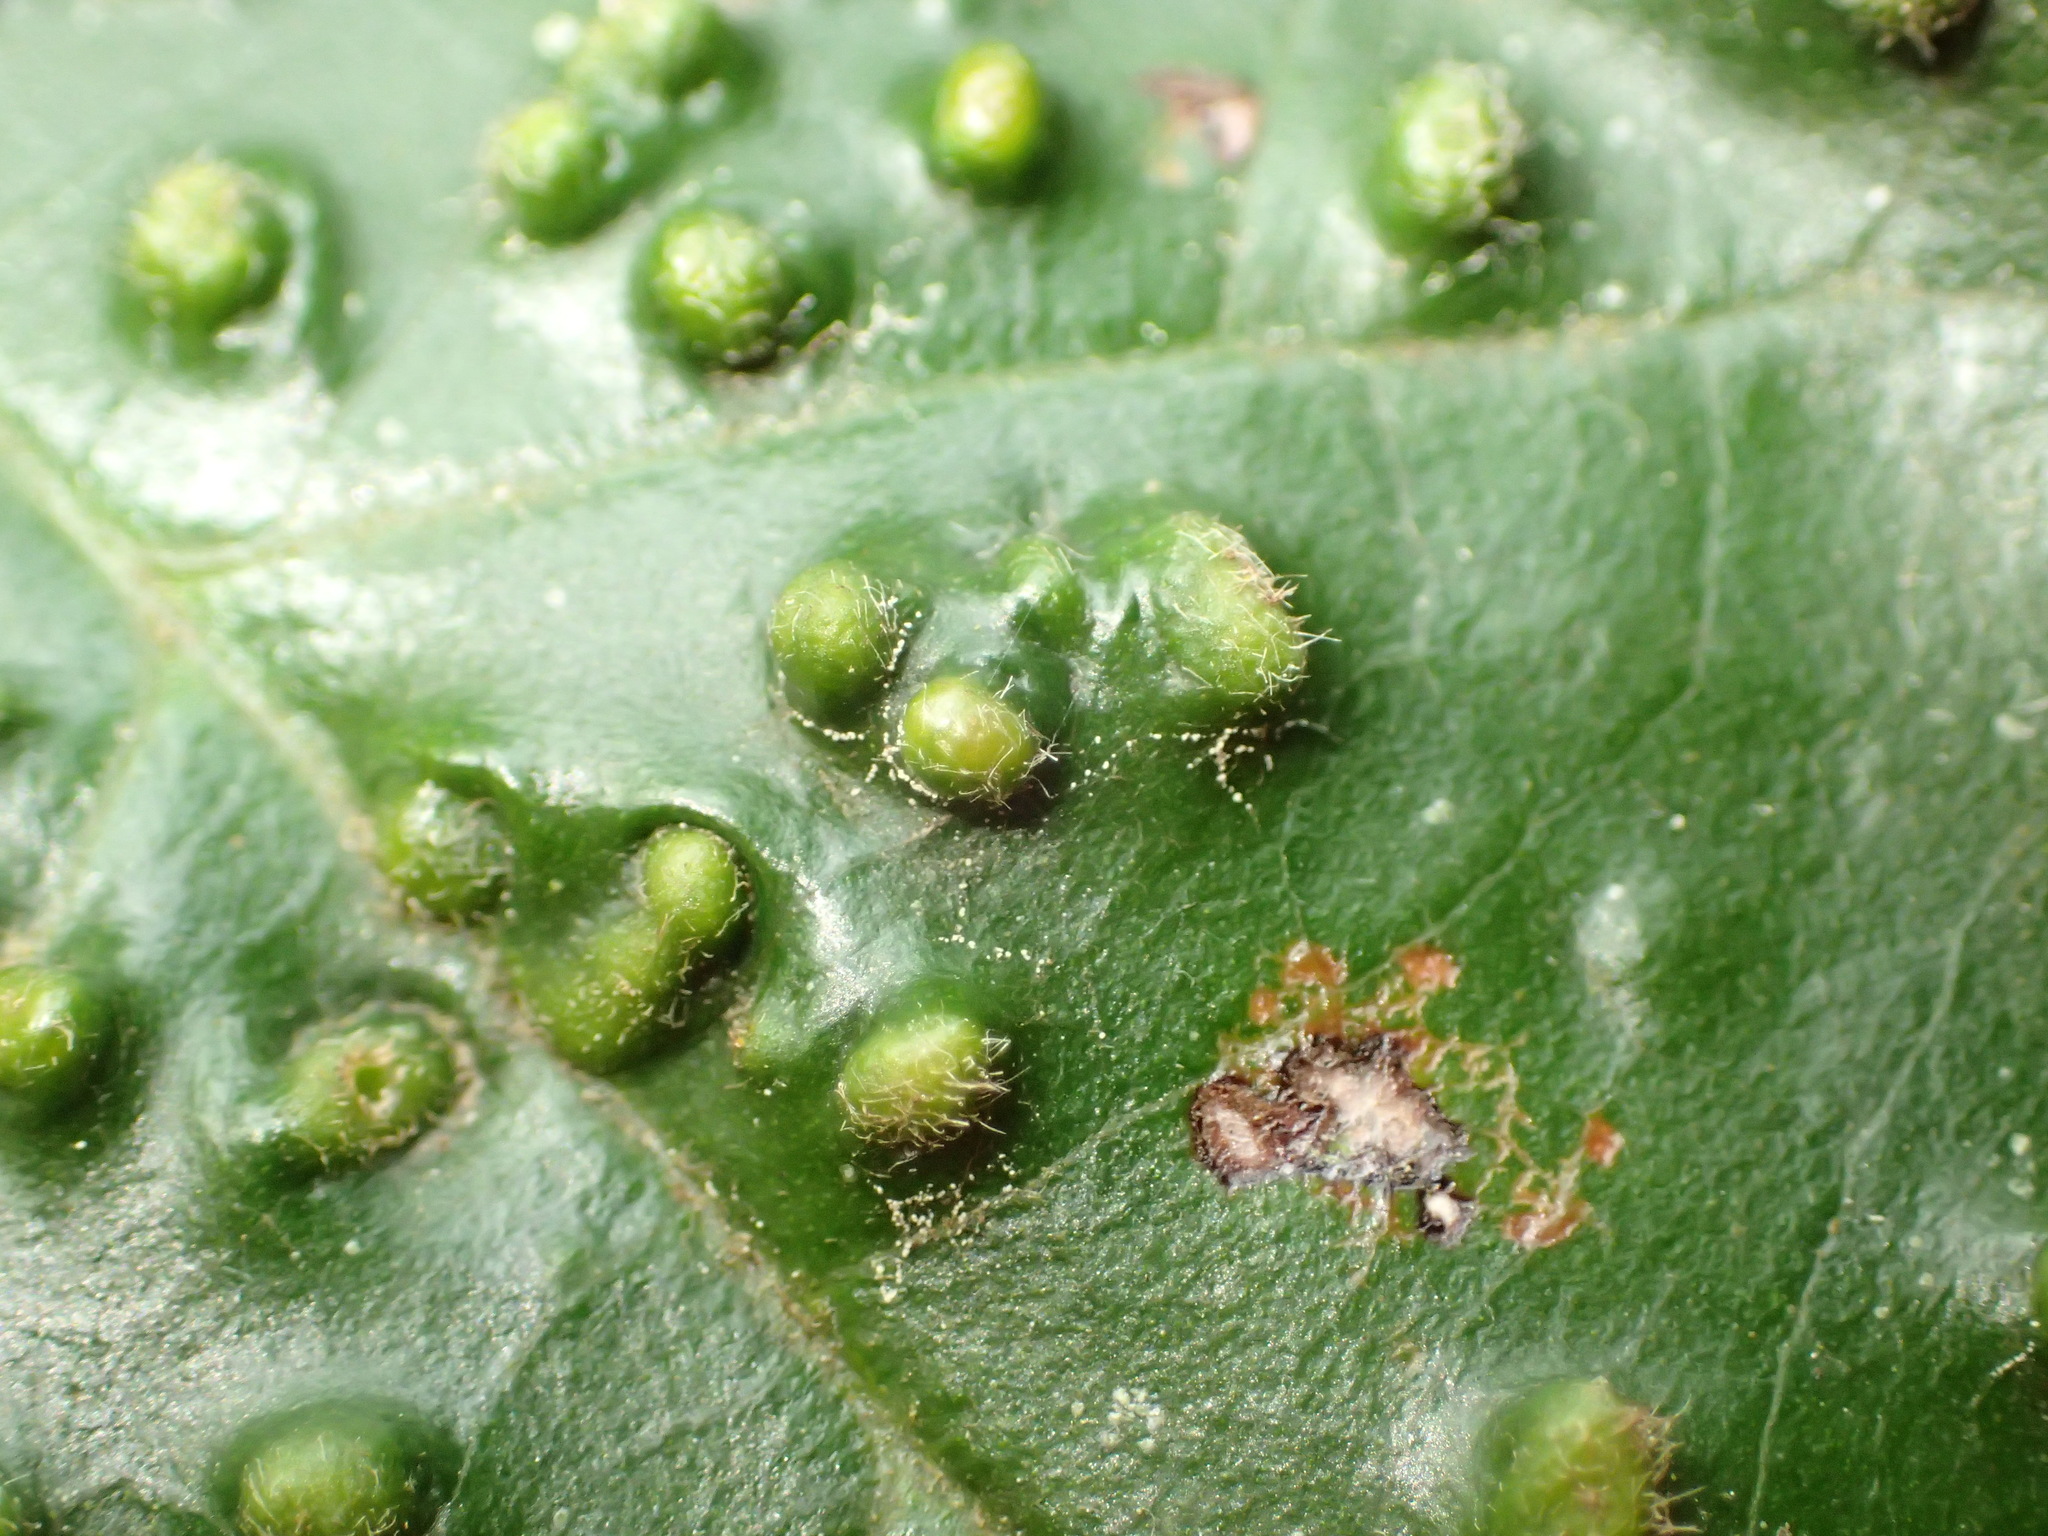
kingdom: Animalia
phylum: Arthropoda
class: Arachnida
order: Trombidiformes
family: Phytoptidae
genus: Phytoptus
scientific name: Phytoptus
